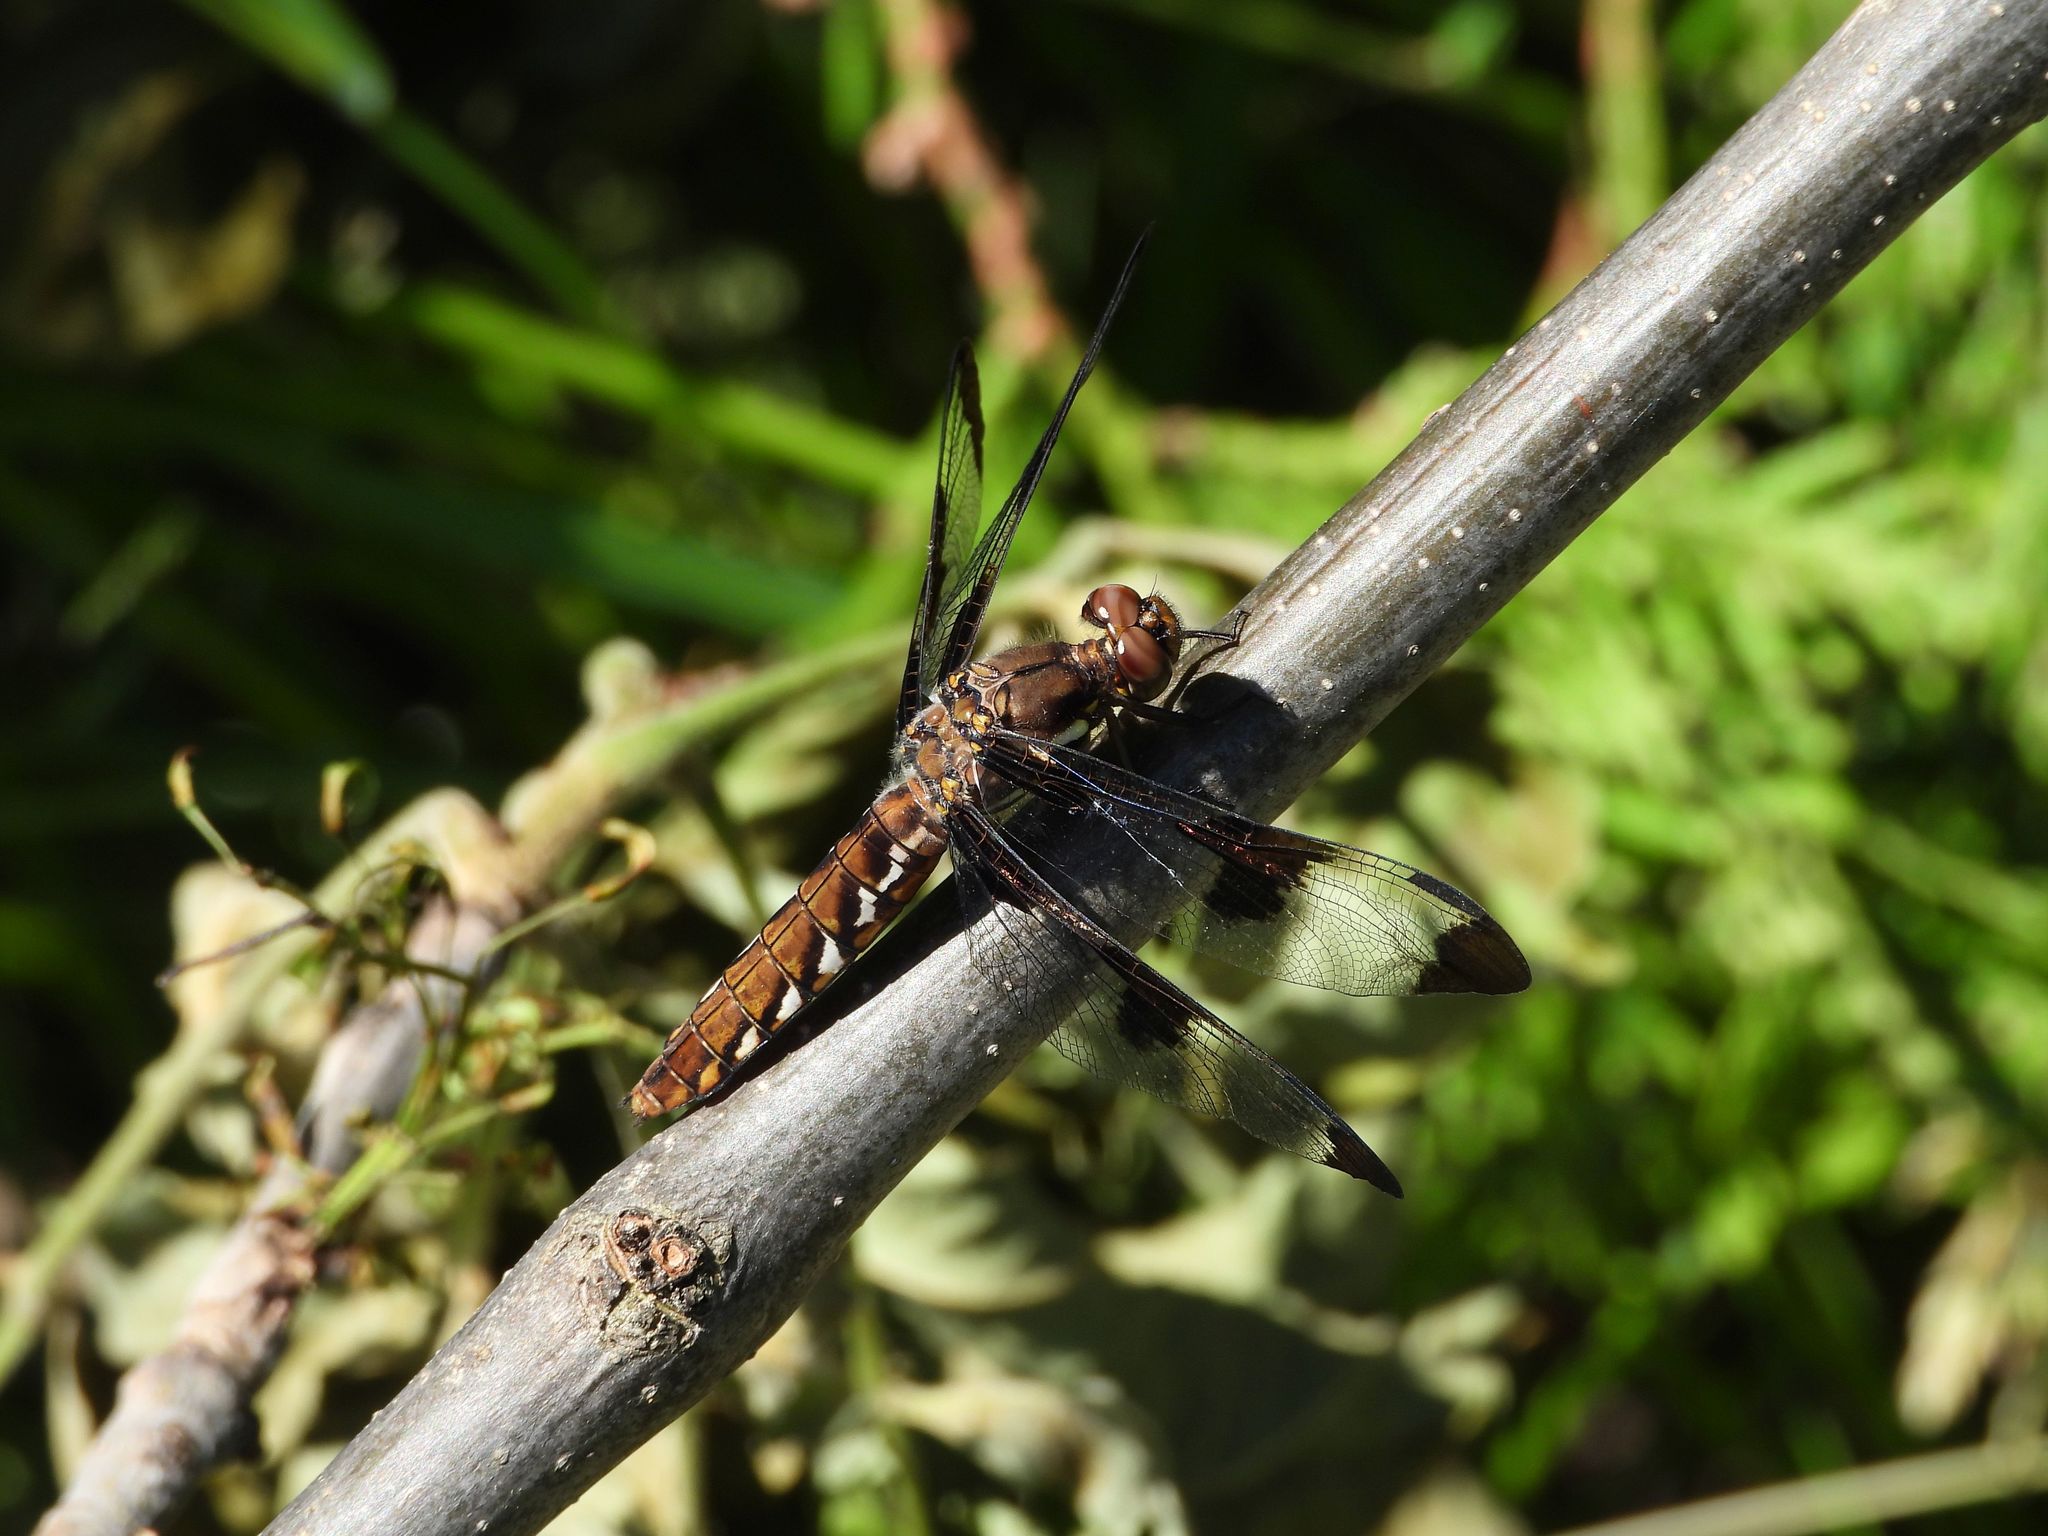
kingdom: Animalia
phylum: Arthropoda
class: Insecta
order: Odonata
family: Libellulidae
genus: Plathemis
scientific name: Plathemis lydia
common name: Common whitetail
